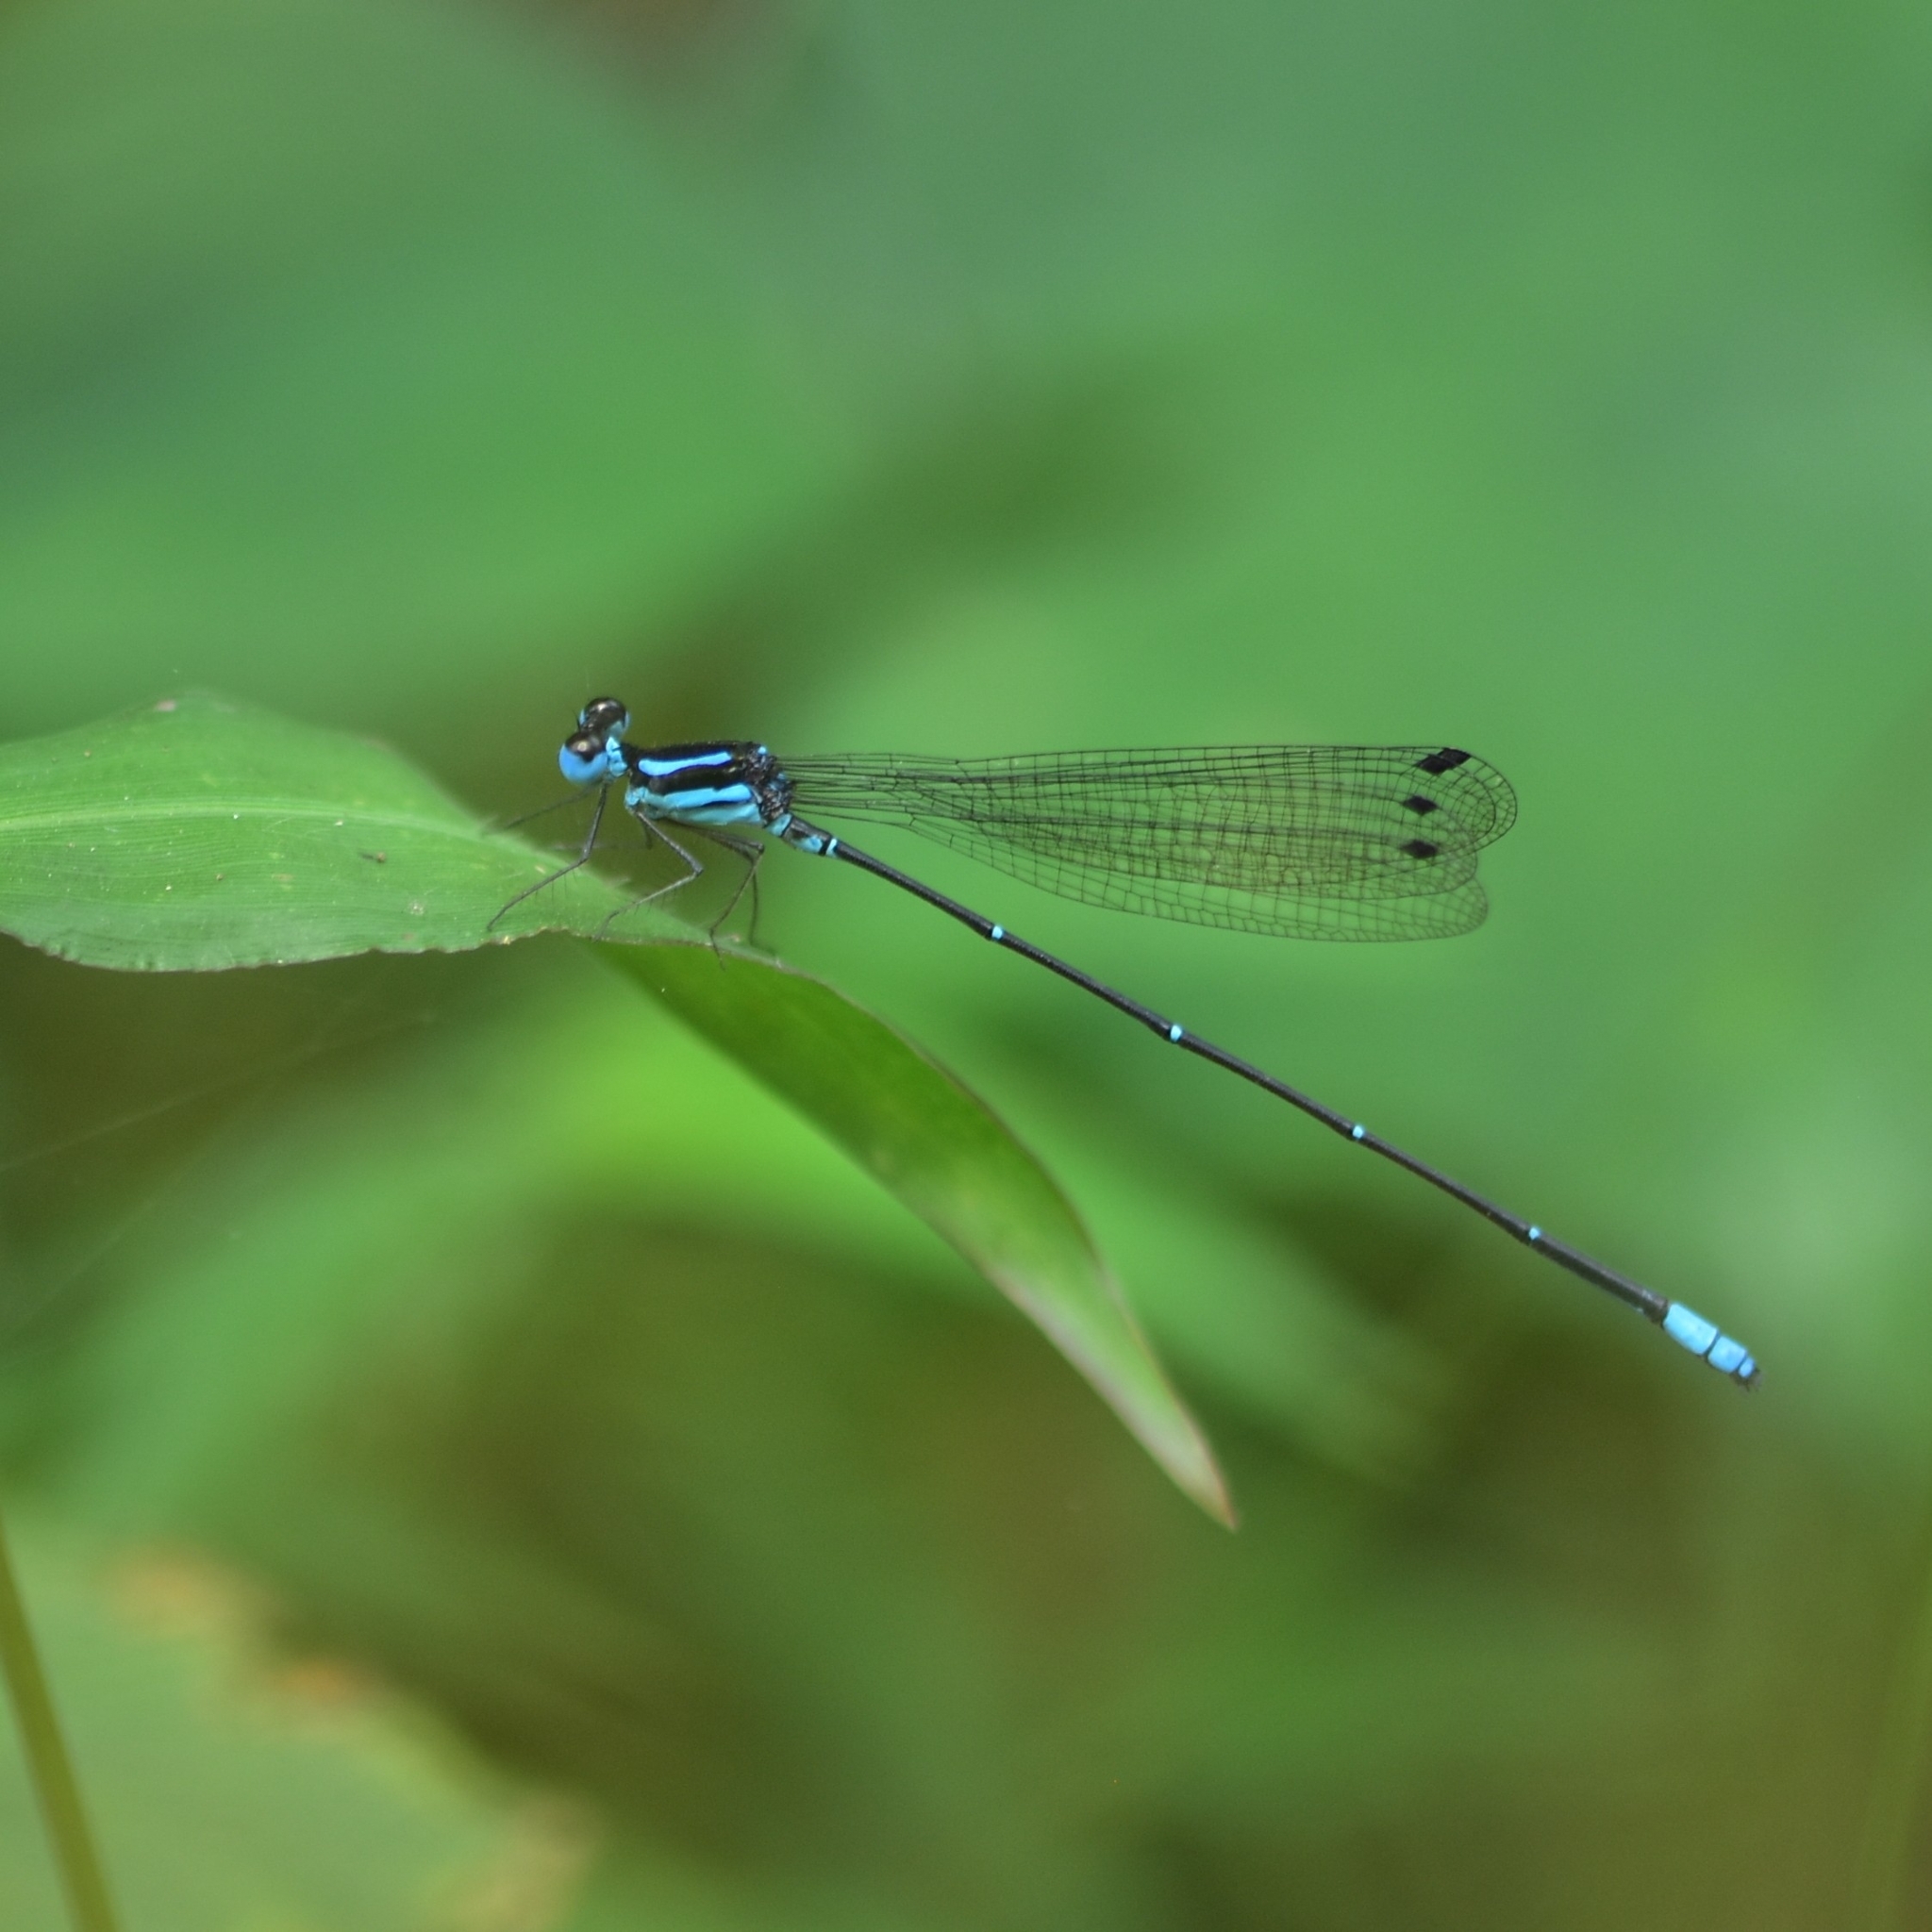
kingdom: Animalia
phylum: Arthropoda
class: Insecta
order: Odonata
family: Platycnemididae
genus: Caconeura
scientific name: Caconeura risi
